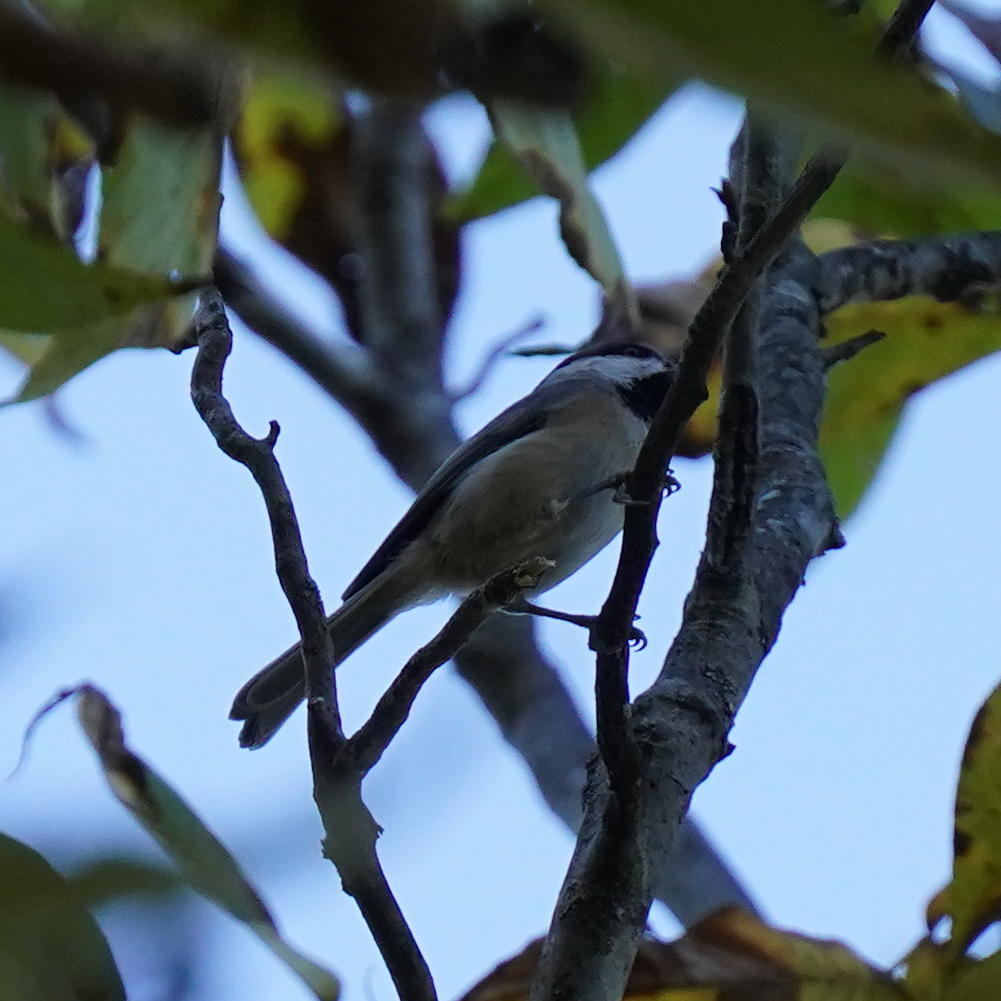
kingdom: Animalia
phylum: Chordata
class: Aves
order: Passeriformes
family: Paridae
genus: Poecile
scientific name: Poecile carolinensis
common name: Carolina chickadee
